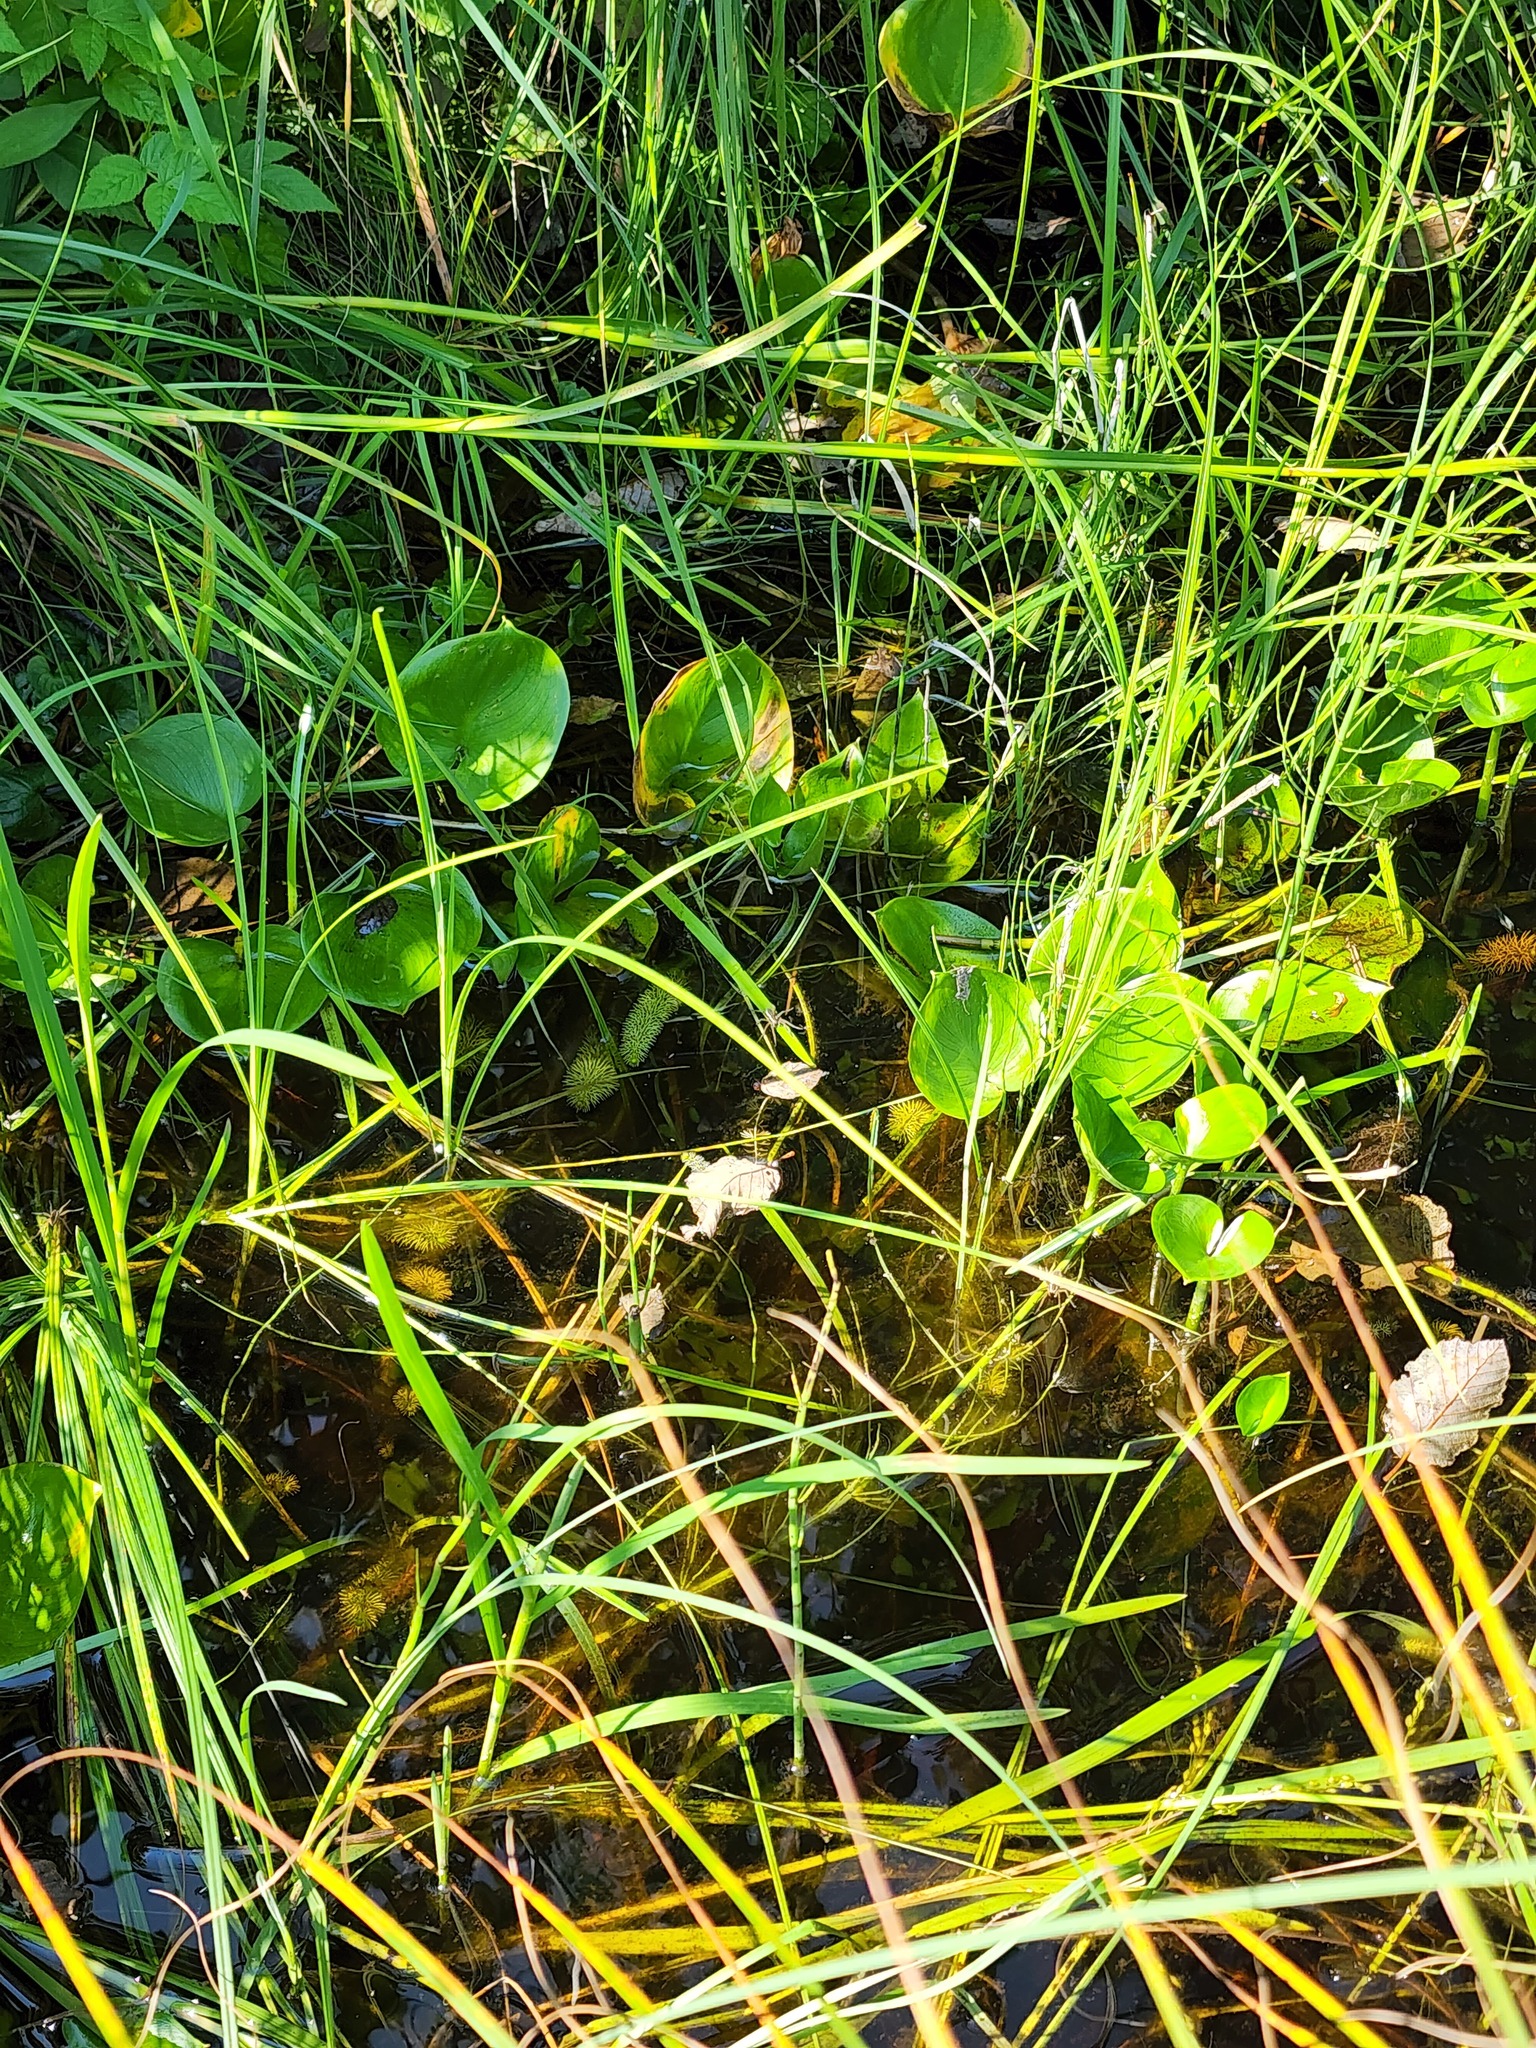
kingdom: Plantae
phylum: Tracheophyta
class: Liliopsida
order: Alismatales
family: Araceae
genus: Calla
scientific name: Calla palustris
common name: Bog arum
